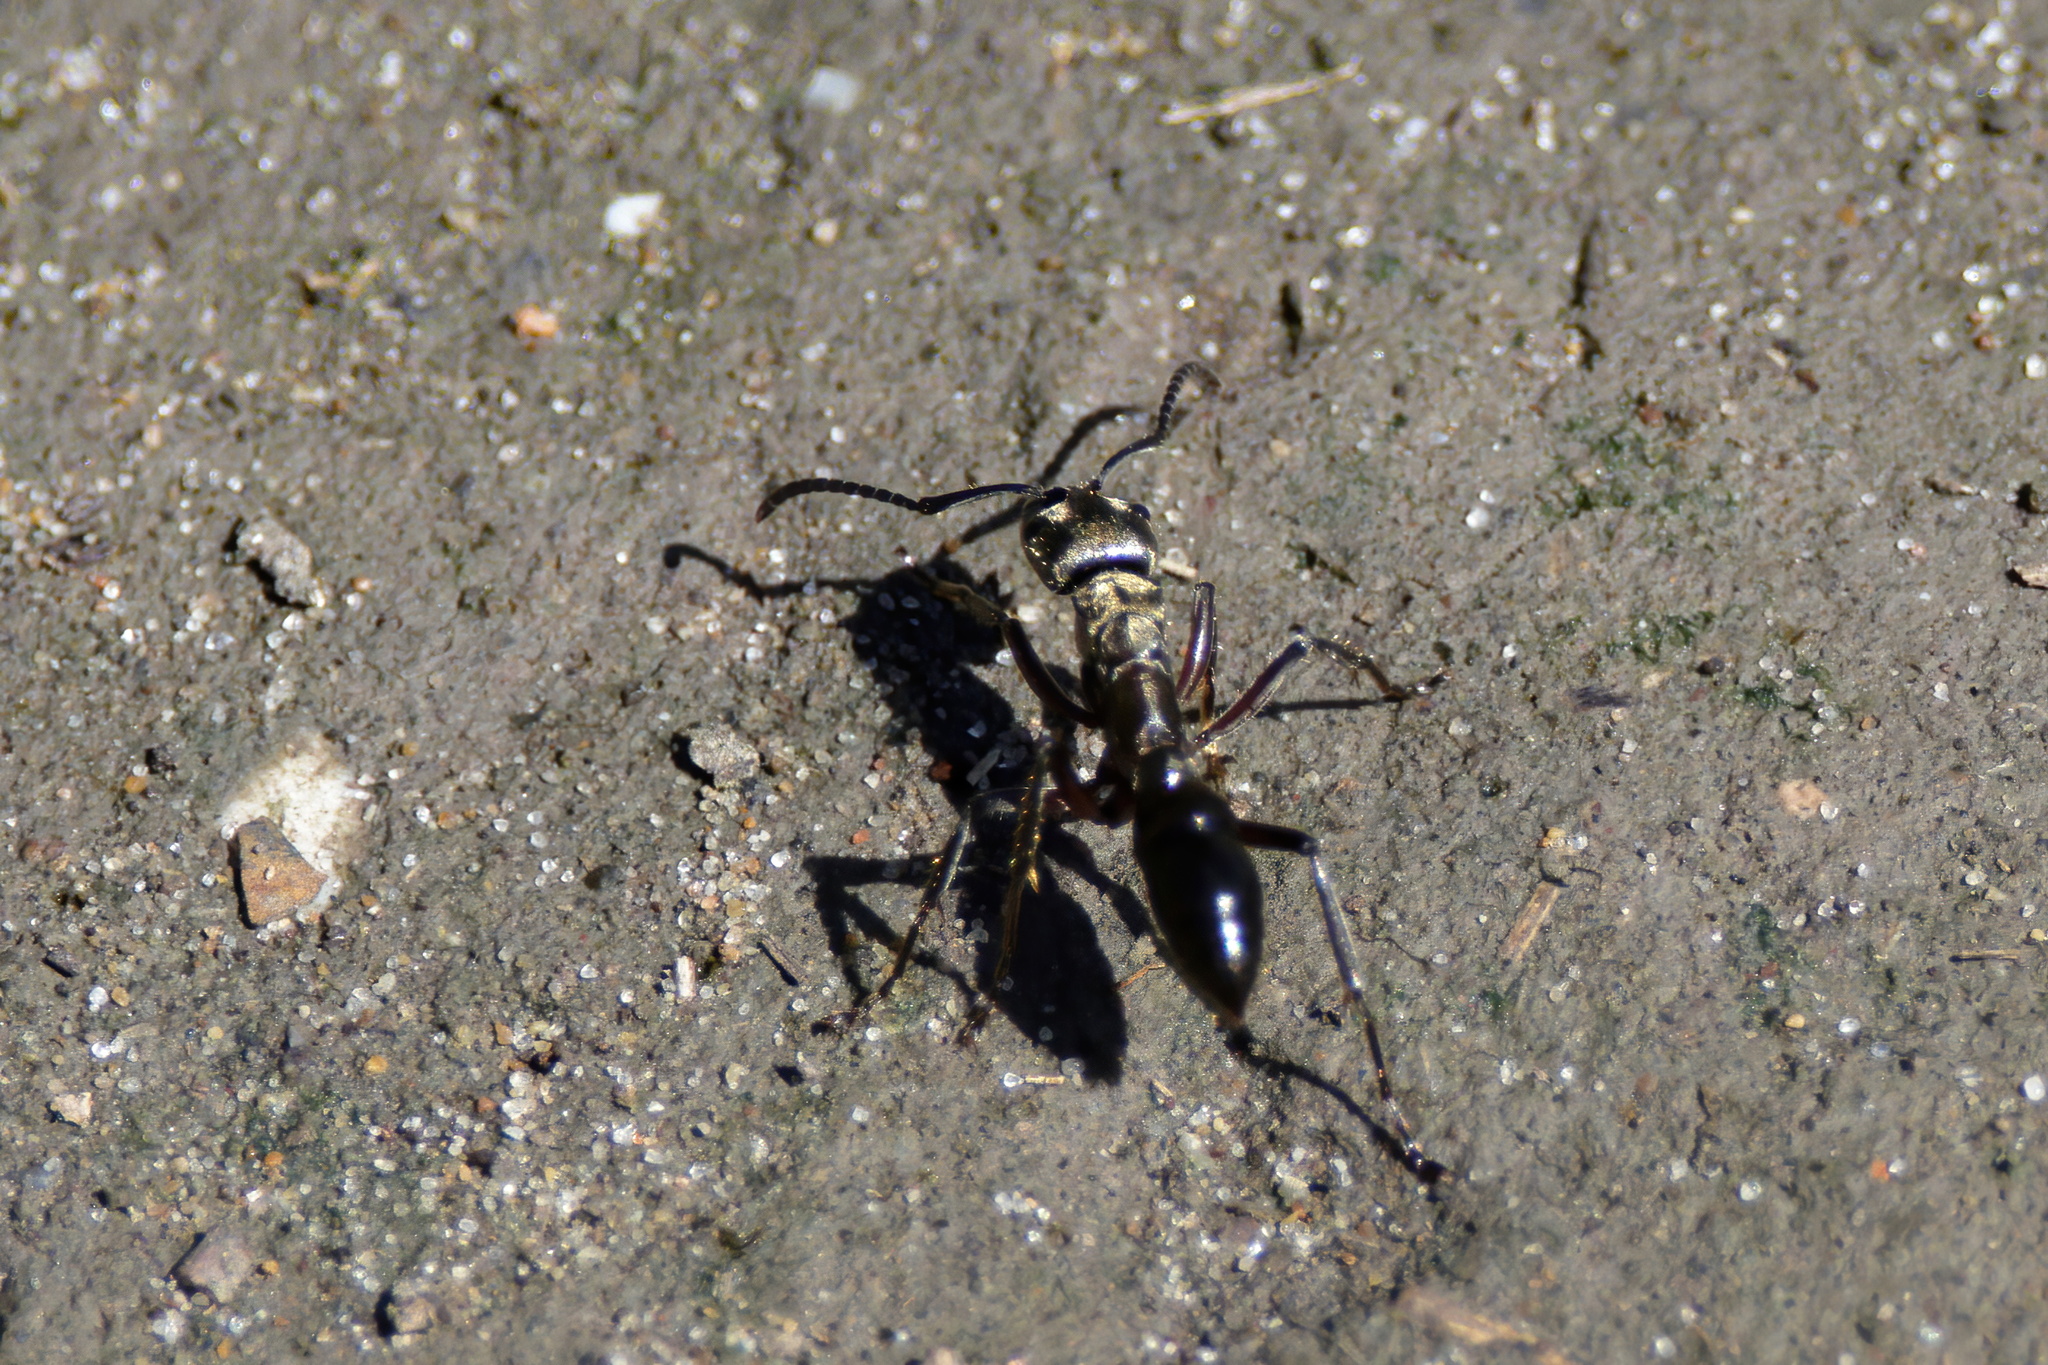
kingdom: Animalia
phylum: Arthropoda
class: Insecta
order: Hymenoptera
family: Formicidae
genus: Pachycondyla
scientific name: Pachycondyla villosa
